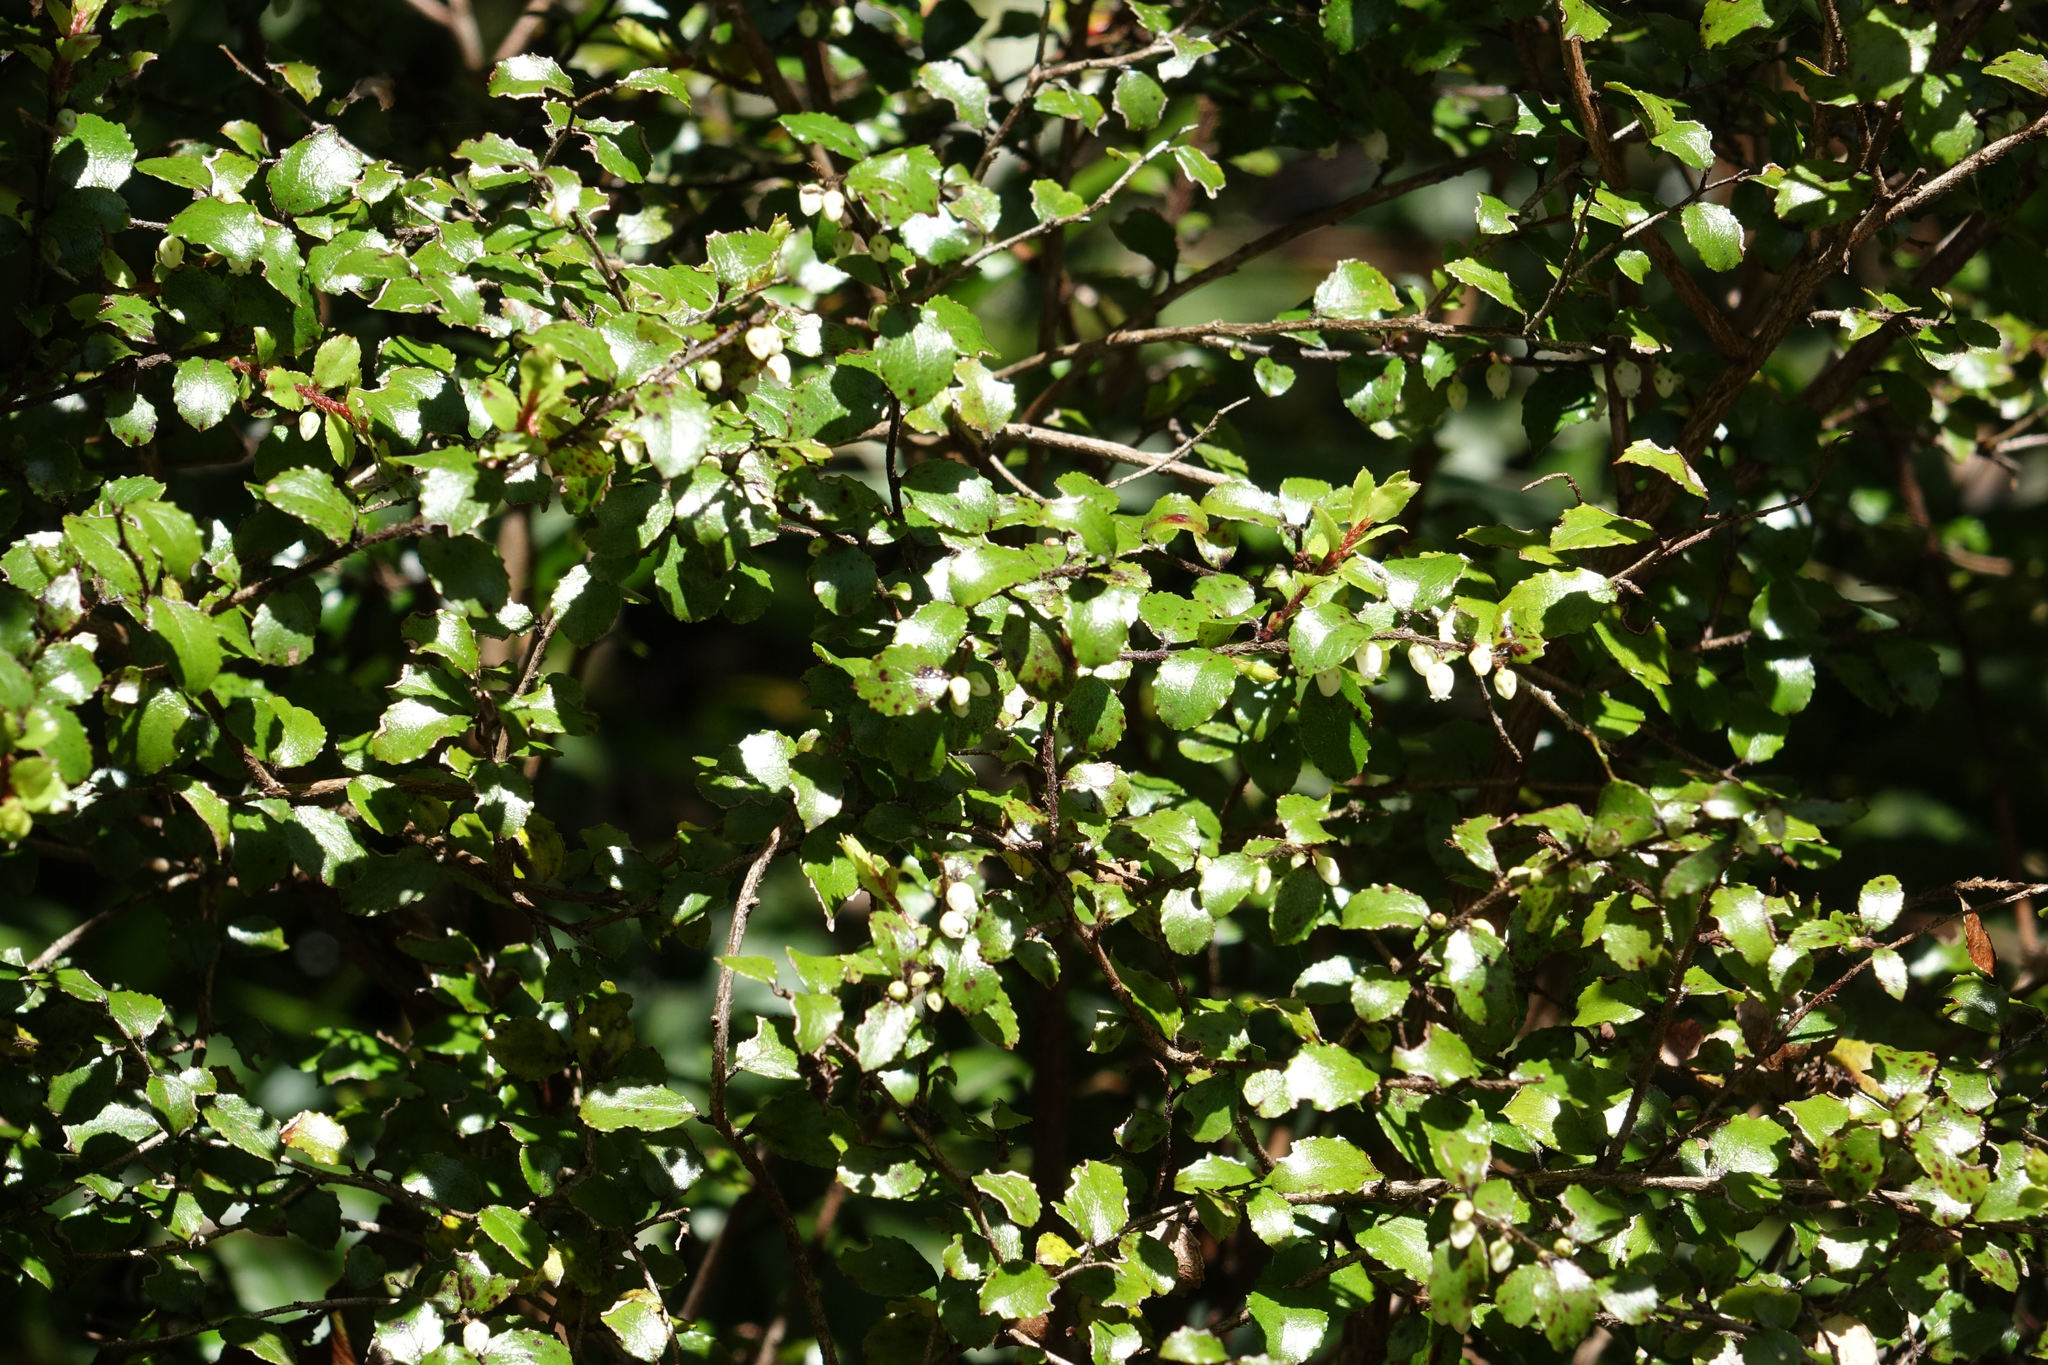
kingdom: Plantae
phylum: Tracheophyta
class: Magnoliopsida
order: Ericales
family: Ericaceae
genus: Gaultheria
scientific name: Gaultheria antipoda
